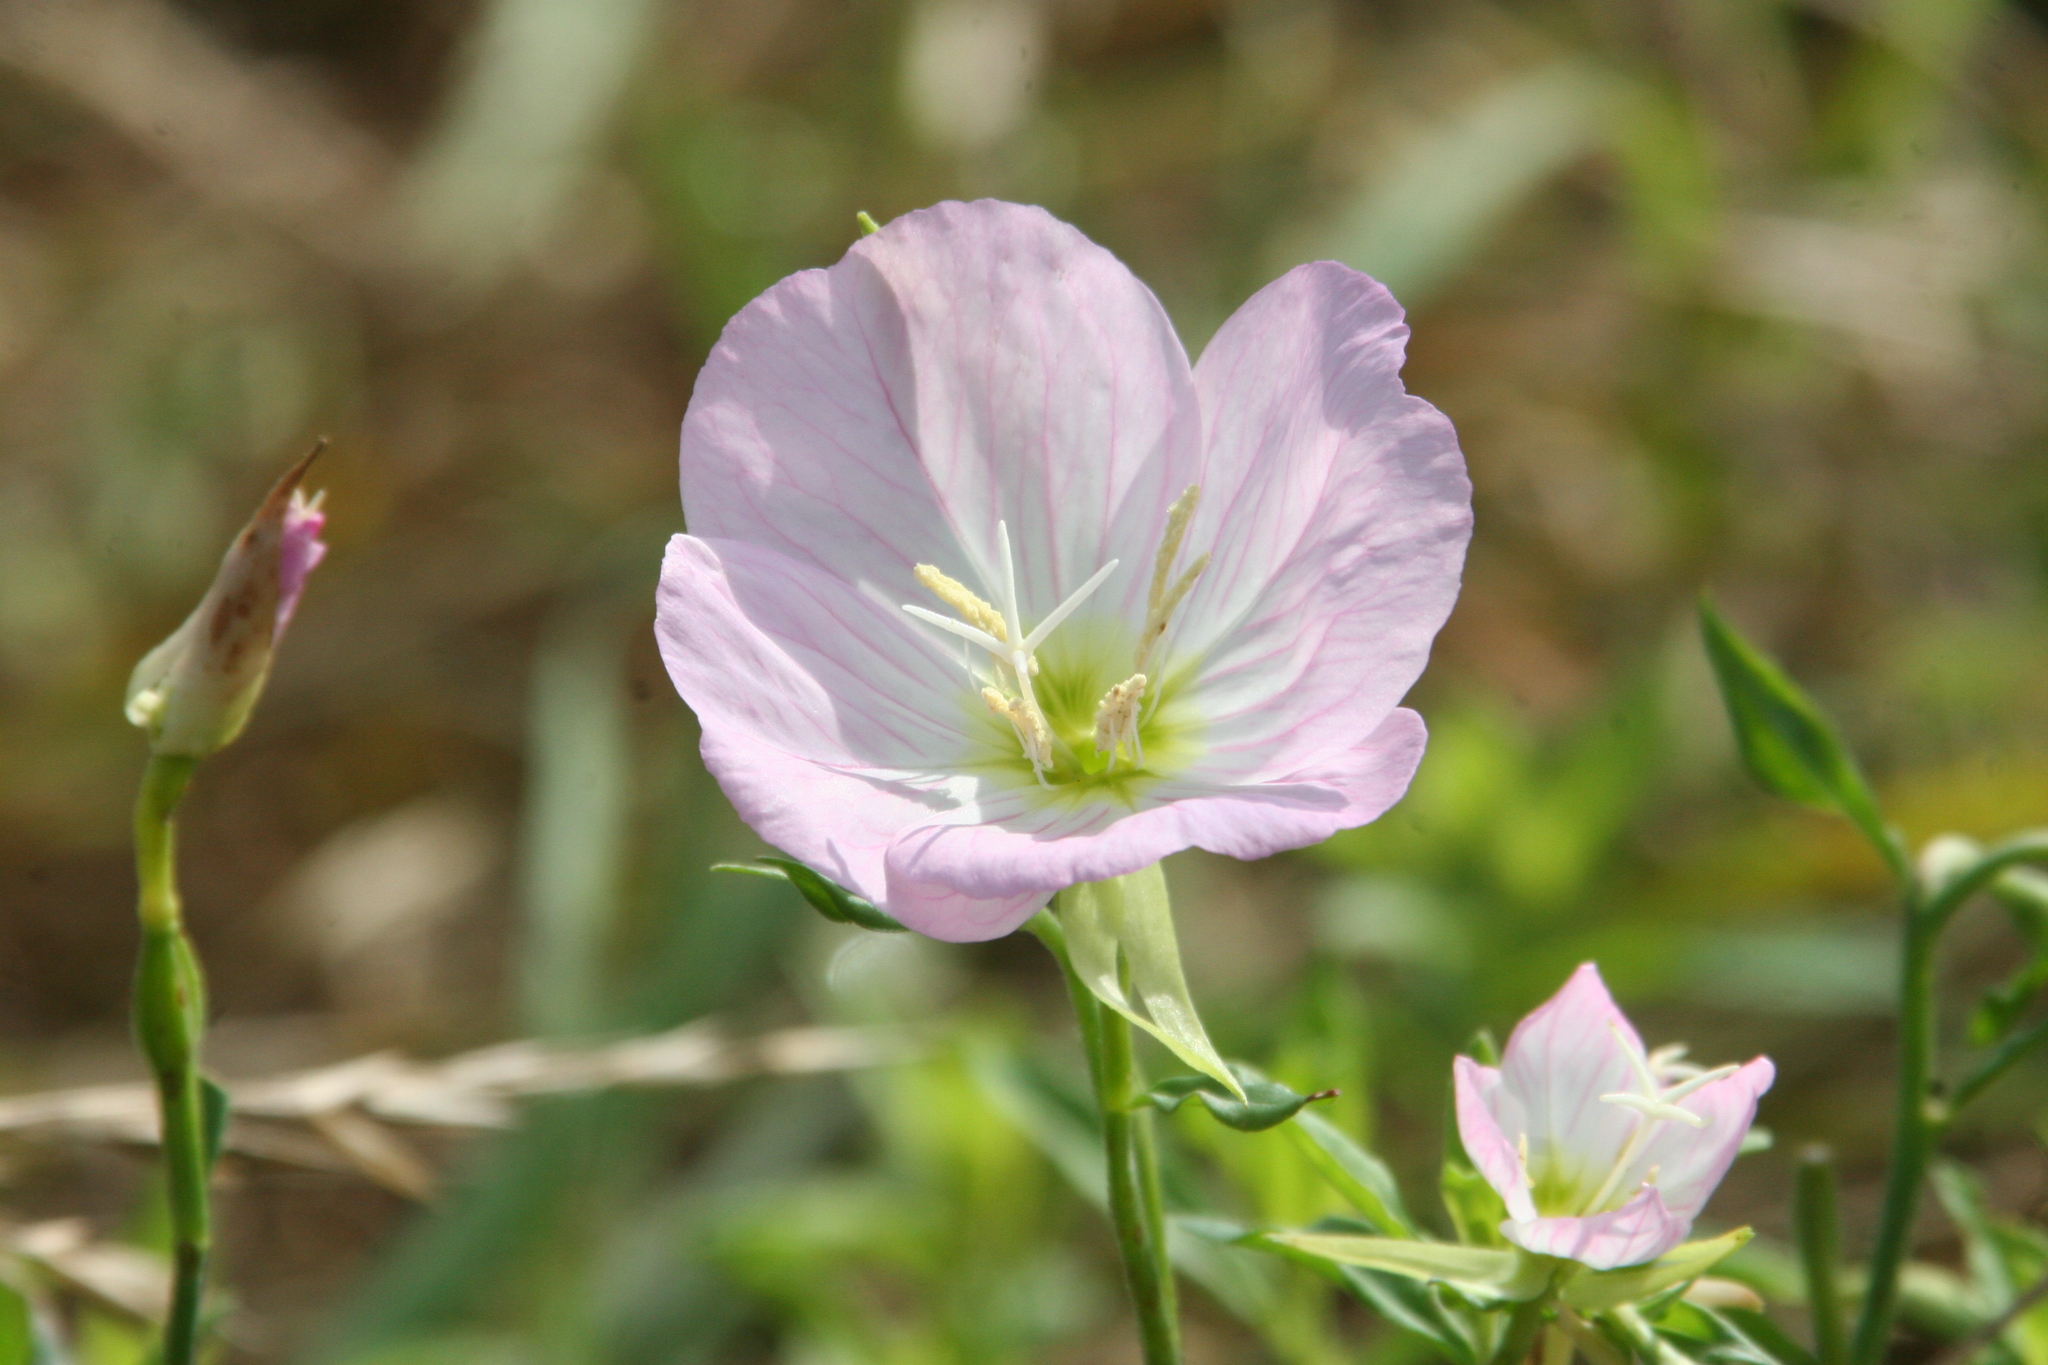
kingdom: Plantae
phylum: Tracheophyta
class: Magnoliopsida
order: Myrtales
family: Onagraceae
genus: Oenothera
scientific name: Oenothera speciosa
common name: White evening-primrose
